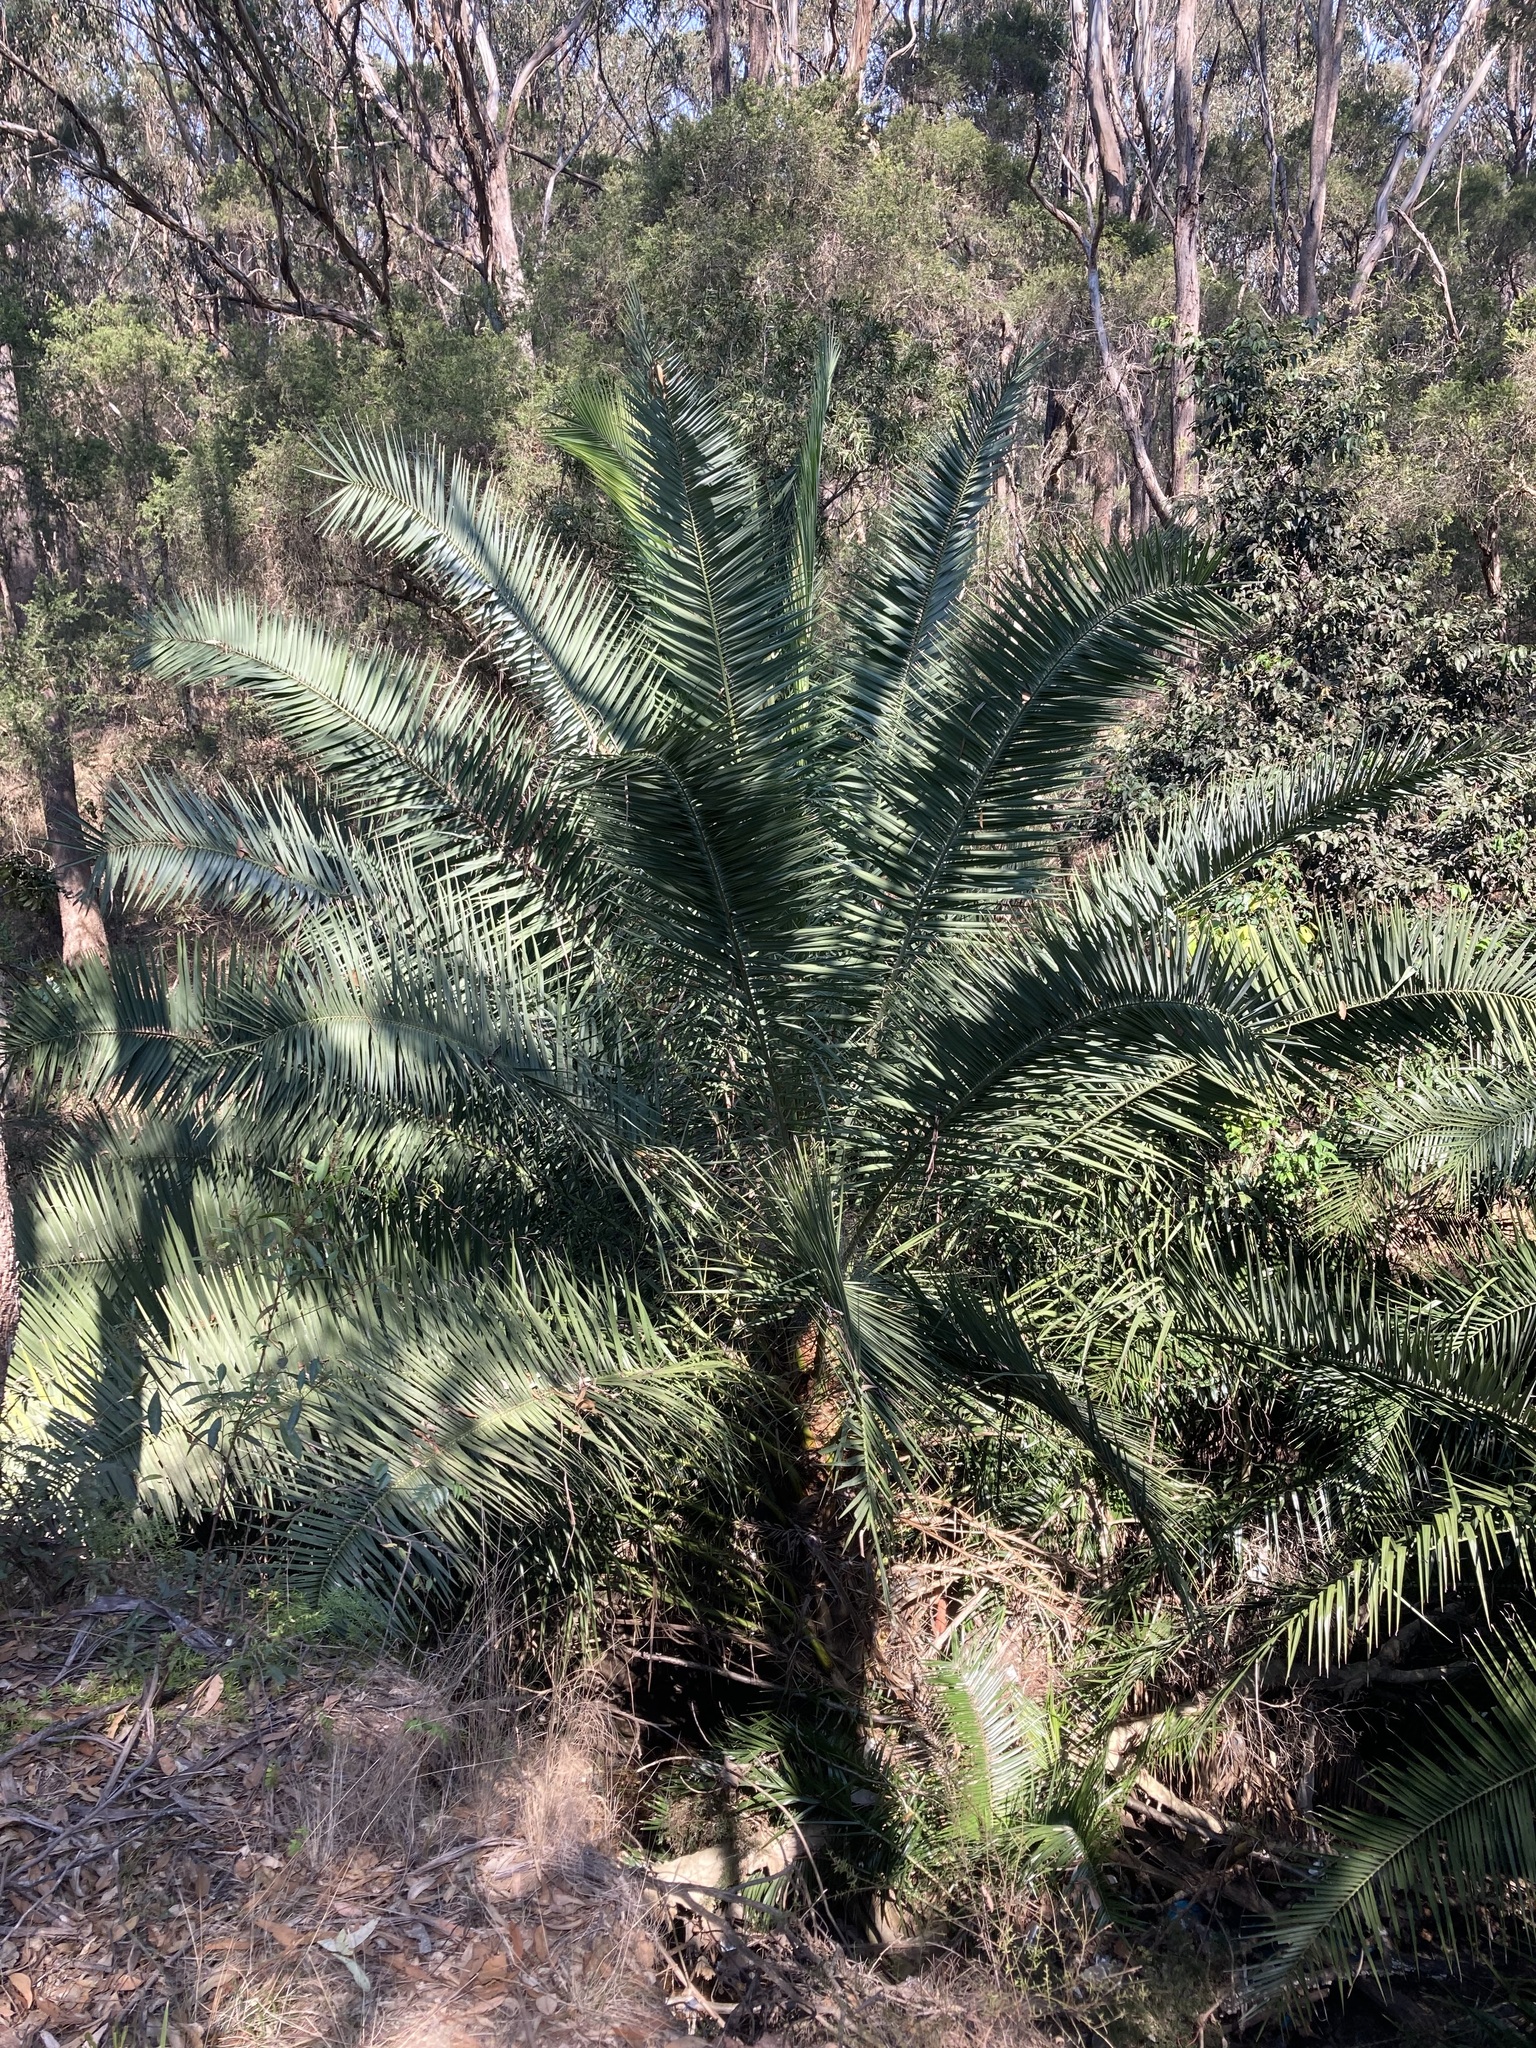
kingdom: Plantae
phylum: Tracheophyta
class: Liliopsida
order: Arecales
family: Arecaceae
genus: Phoenix
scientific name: Phoenix canariensis
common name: Canary island date palm
